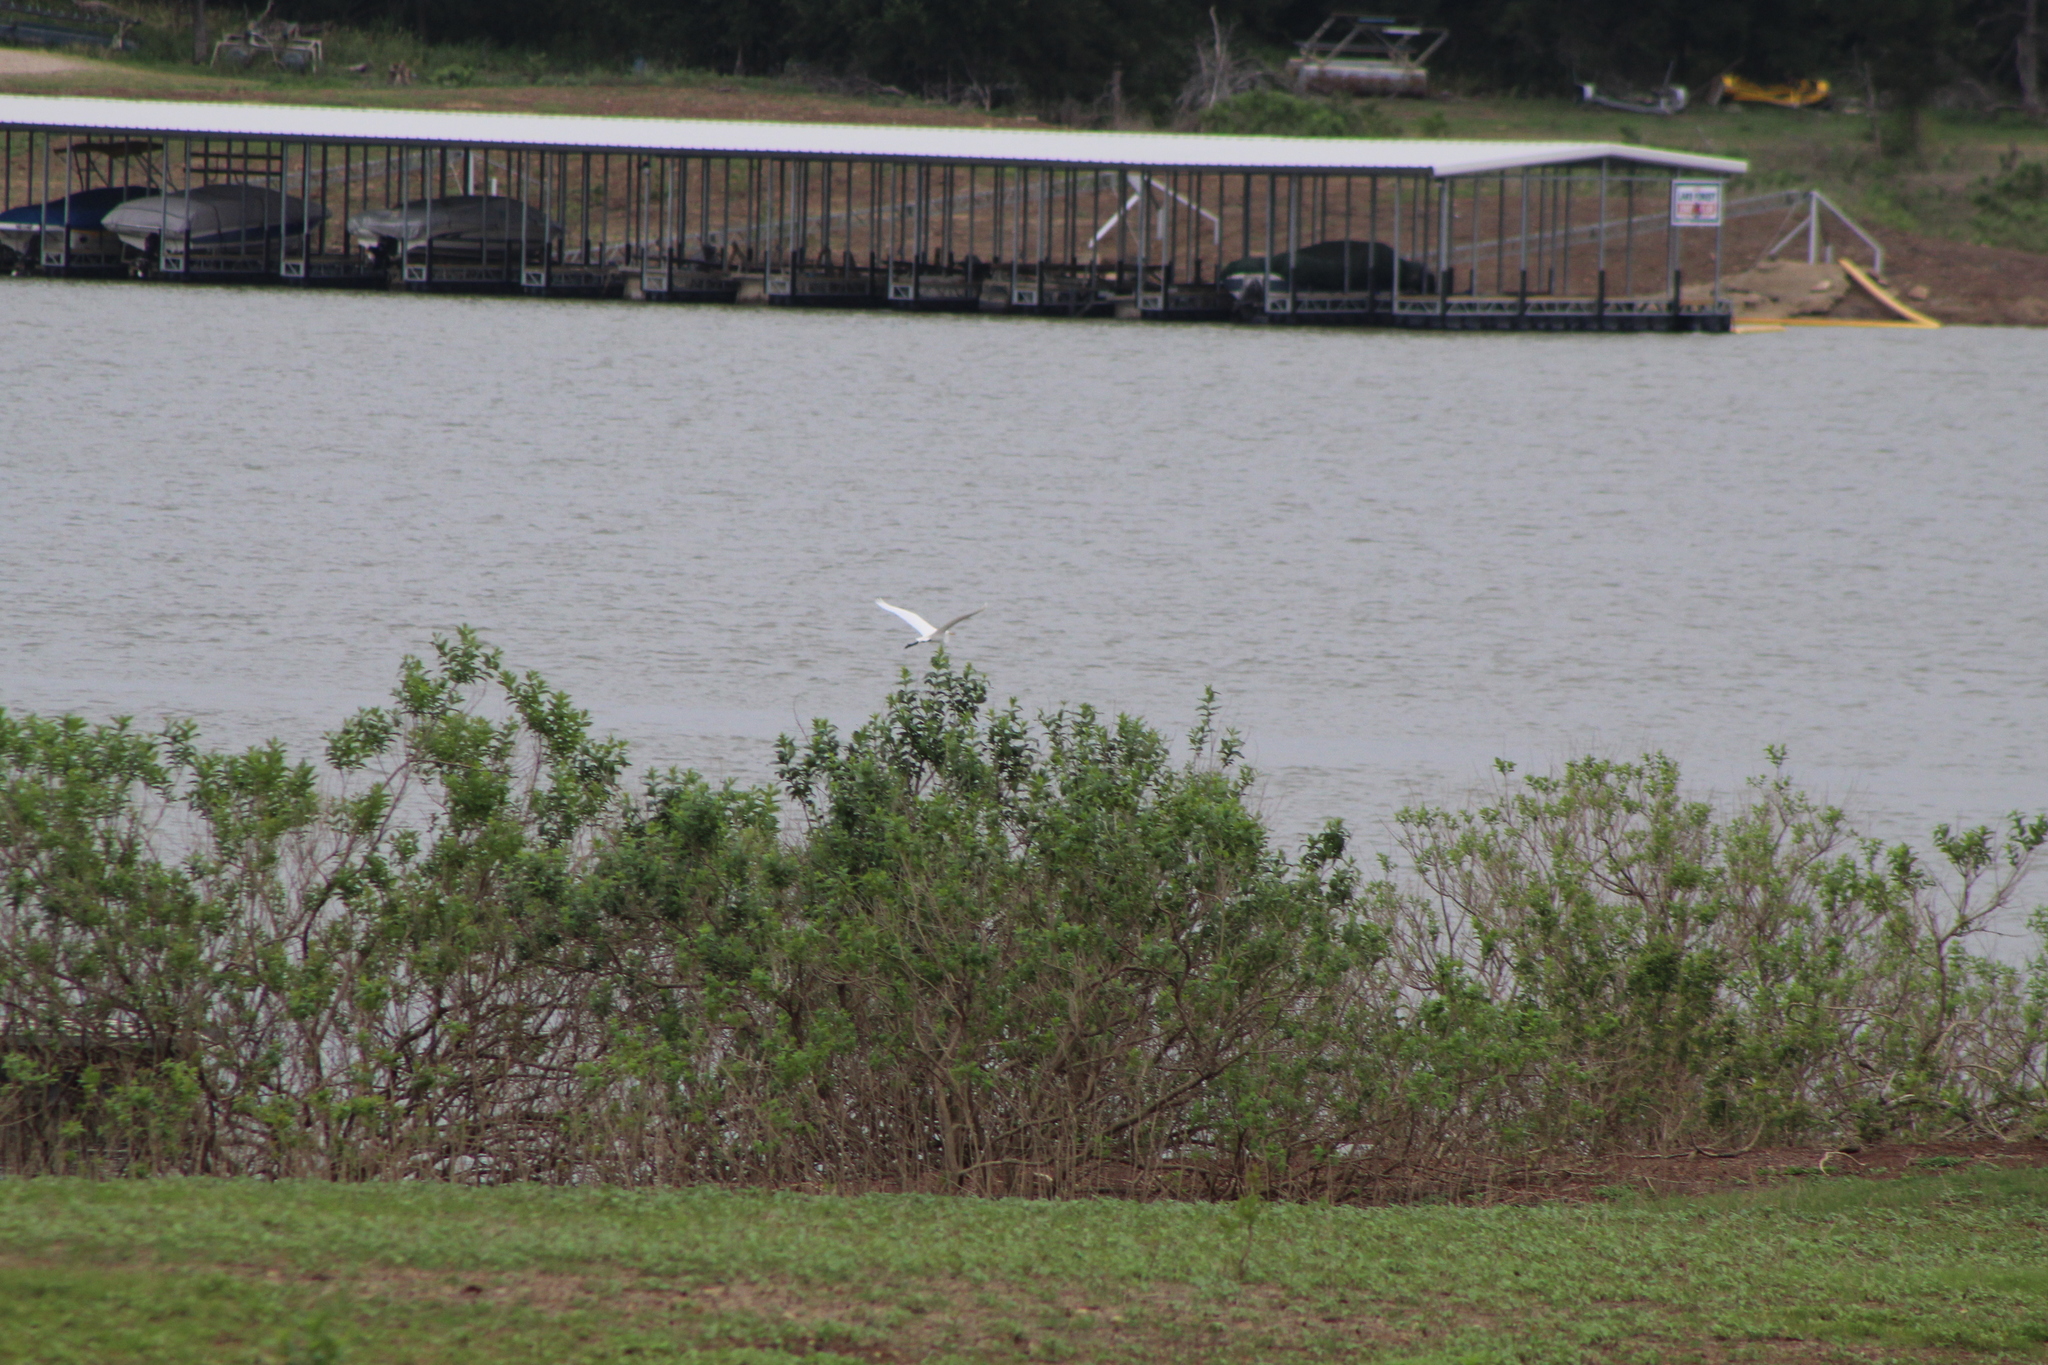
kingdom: Animalia
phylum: Chordata
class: Aves
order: Pelecaniformes
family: Ardeidae
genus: Ardea
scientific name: Ardea alba
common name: Great egret
